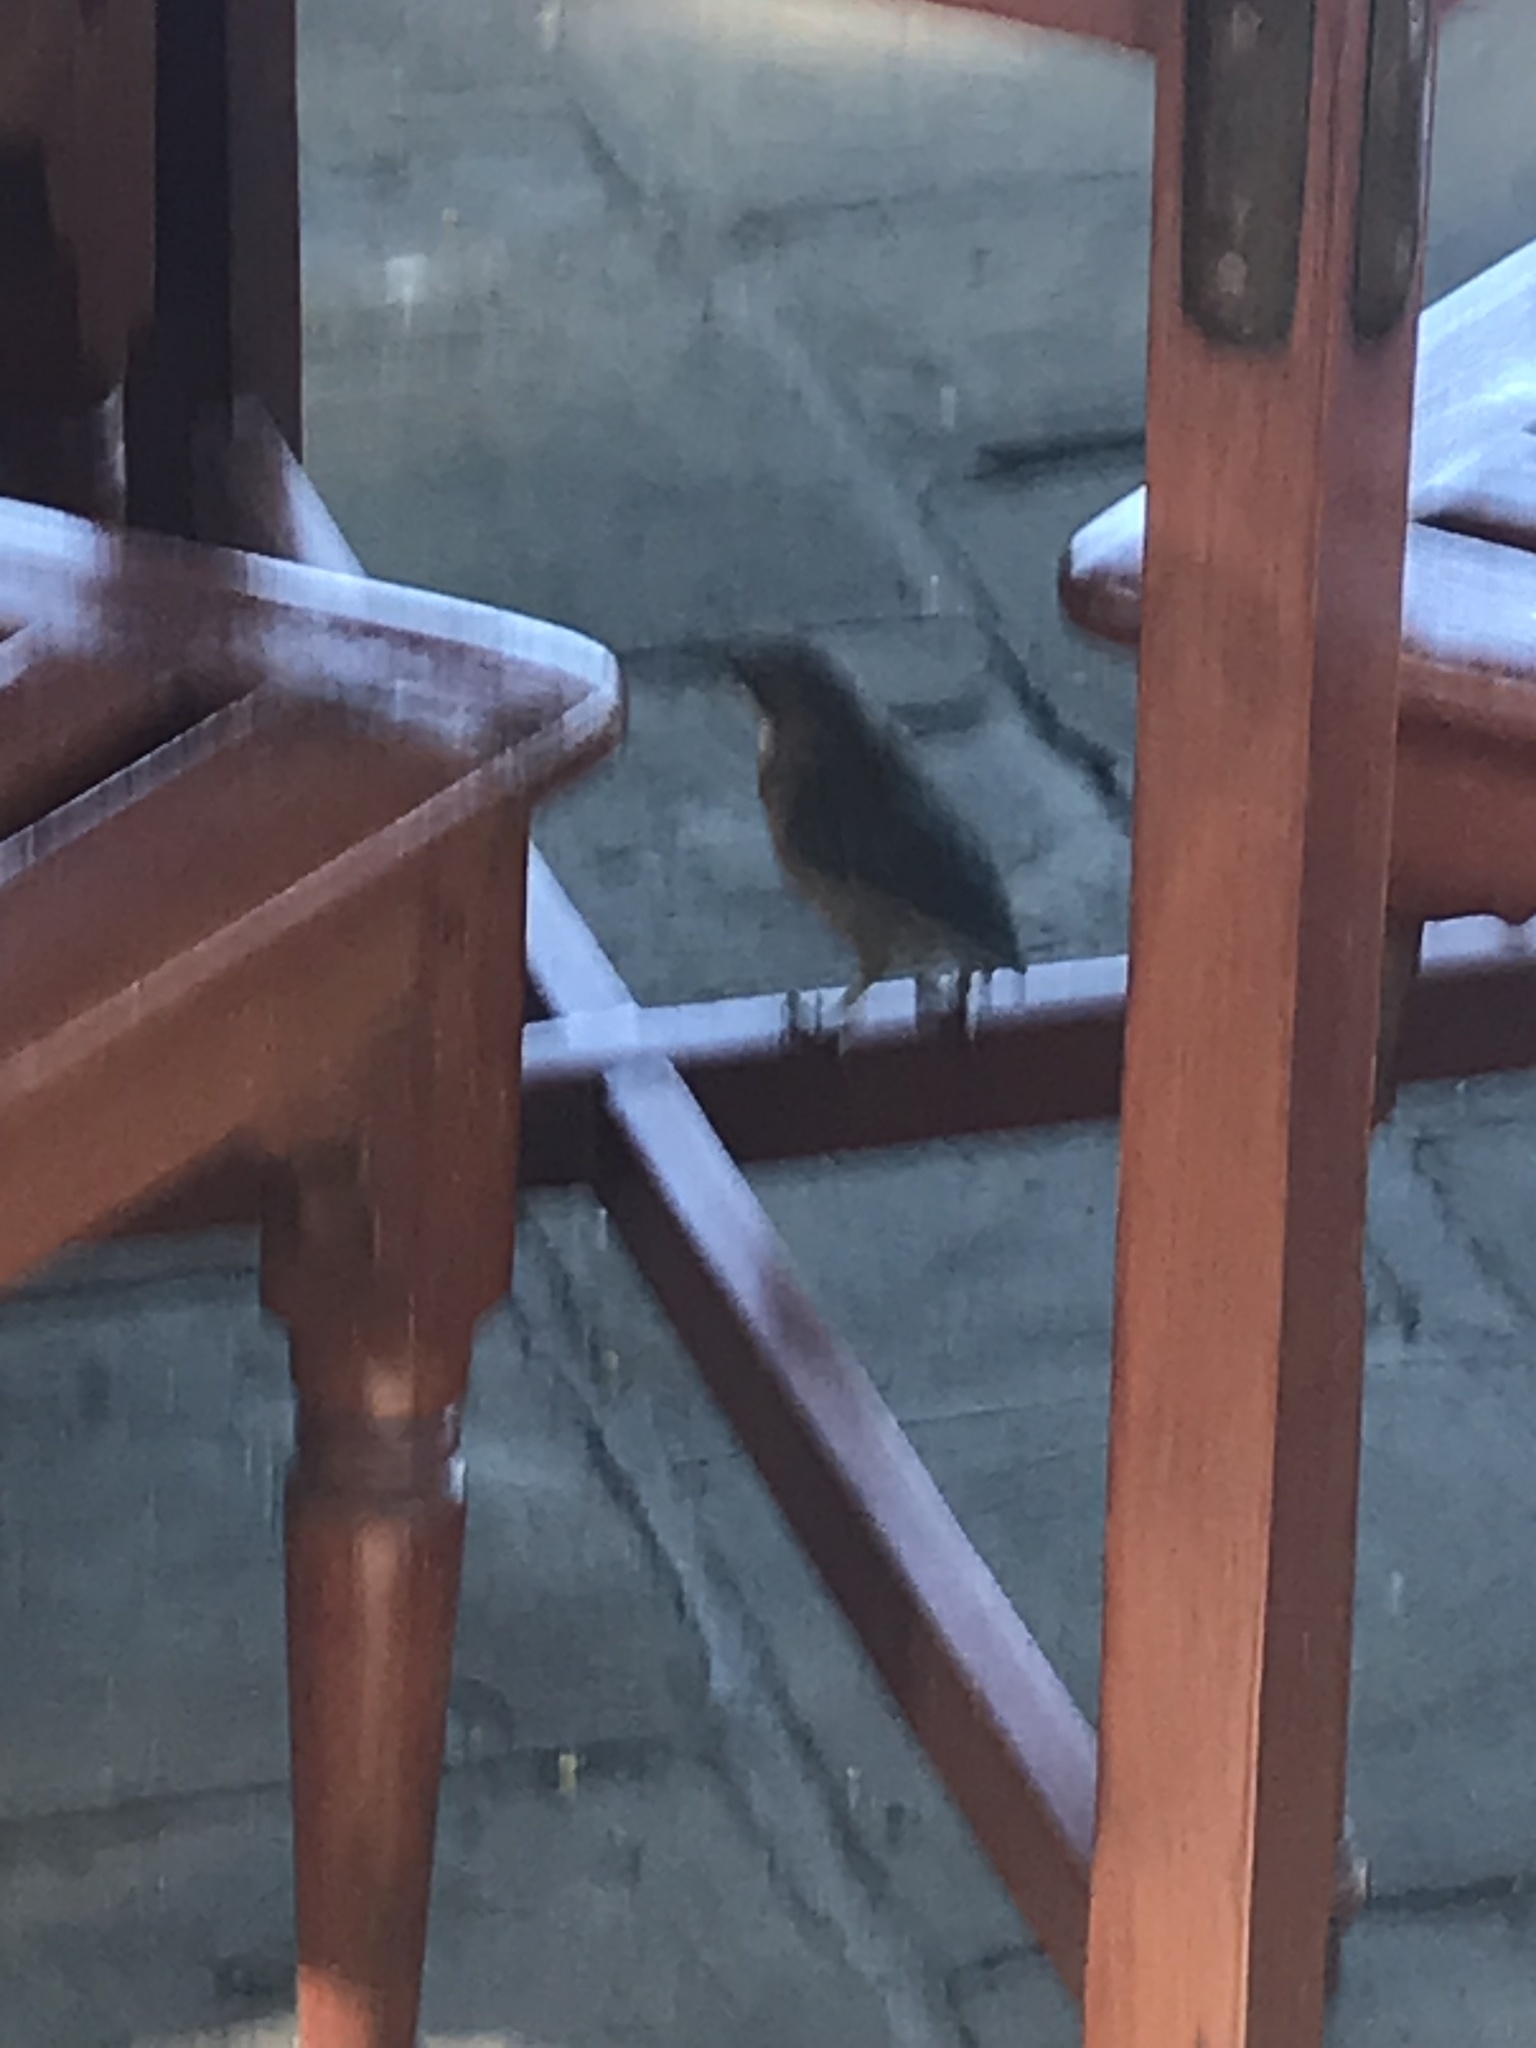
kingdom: Animalia
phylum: Chordata
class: Aves
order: Passeriformes
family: Leiothrichidae
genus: Turdoides
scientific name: Turdoides gularis
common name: White-throated babbler
